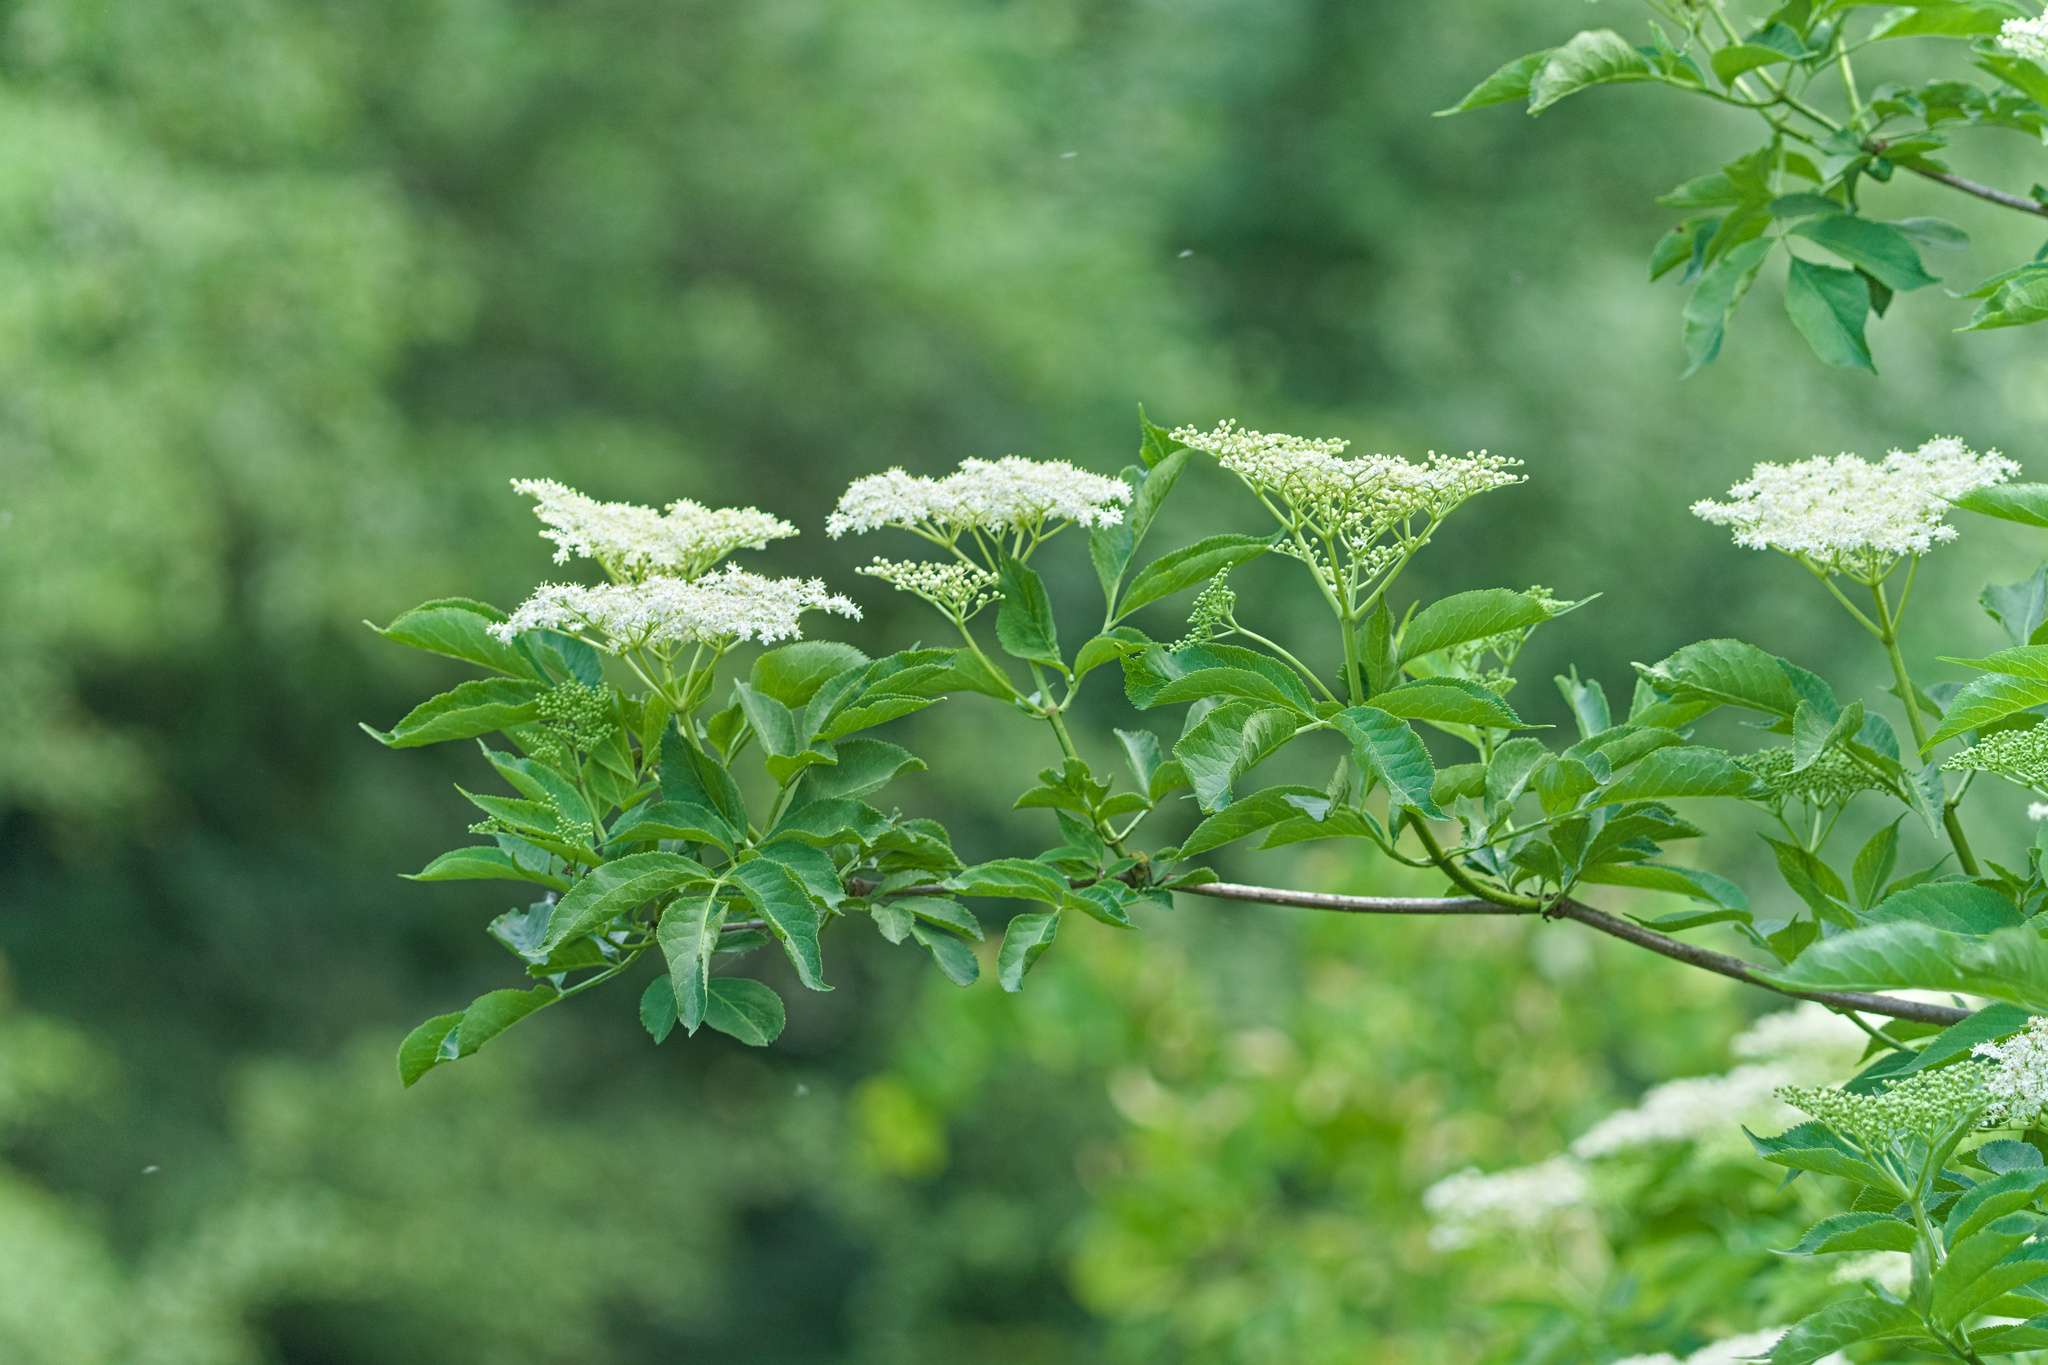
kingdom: Plantae
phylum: Tracheophyta
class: Magnoliopsida
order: Dipsacales
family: Viburnaceae
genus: Sambucus
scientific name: Sambucus nigra
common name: Elder
